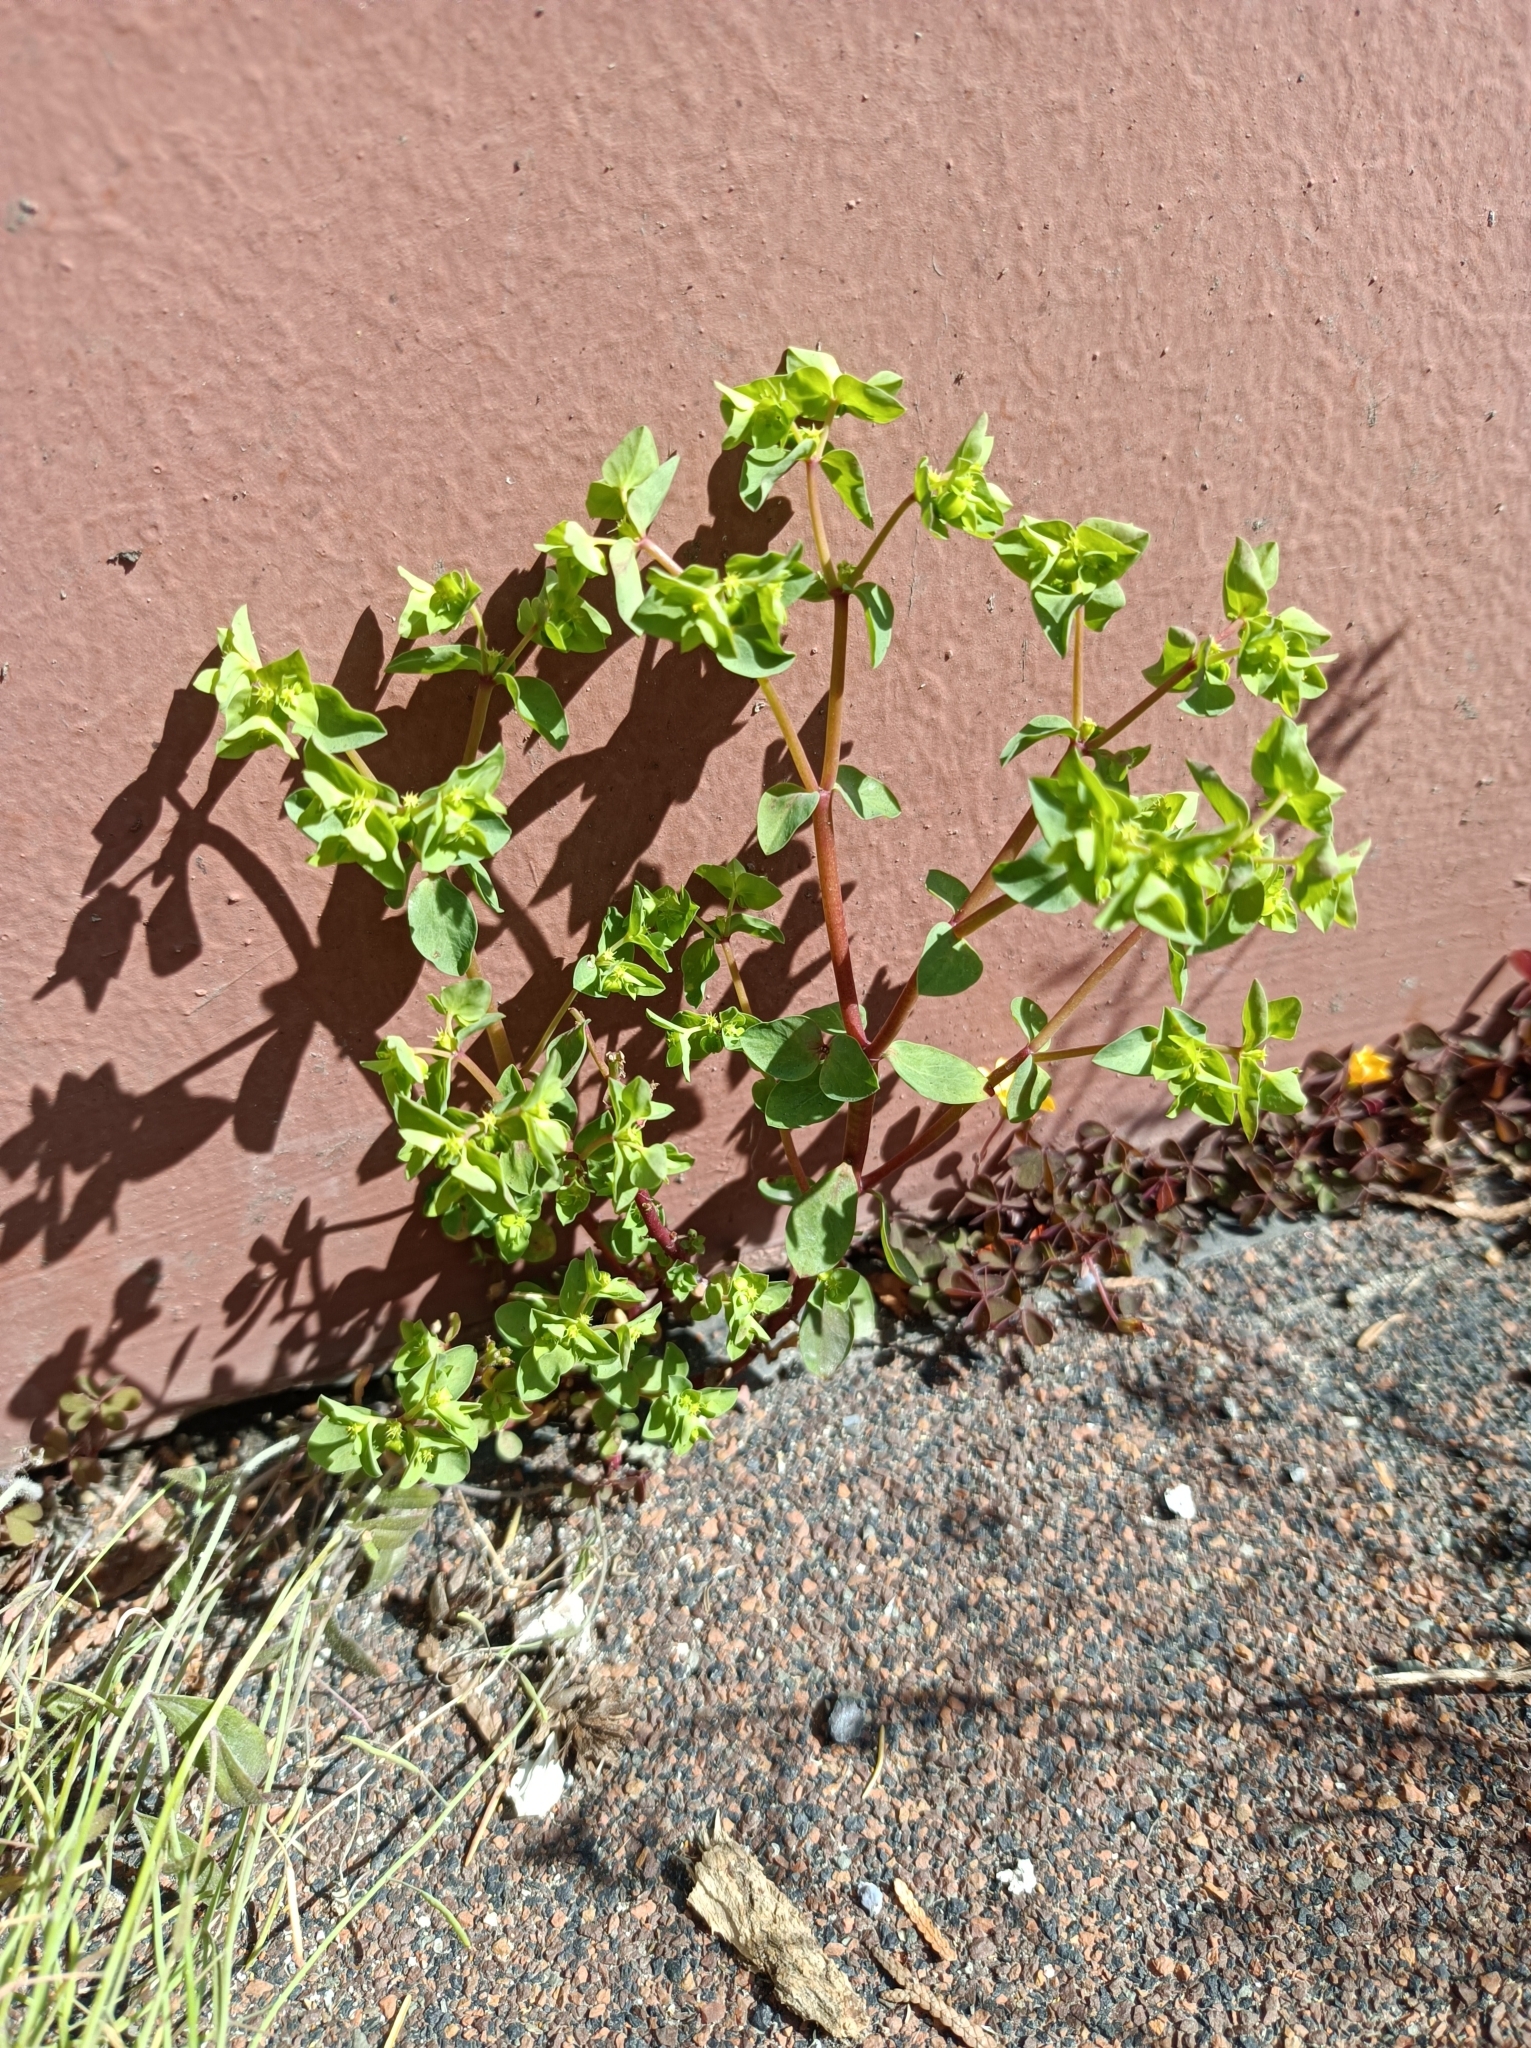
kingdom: Plantae
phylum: Tracheophyta
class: Magnoliopsida
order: Malpighiales
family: Euphorbiaceae
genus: Euphorbia
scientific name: Euphorbia peplus
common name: Petty spurge
